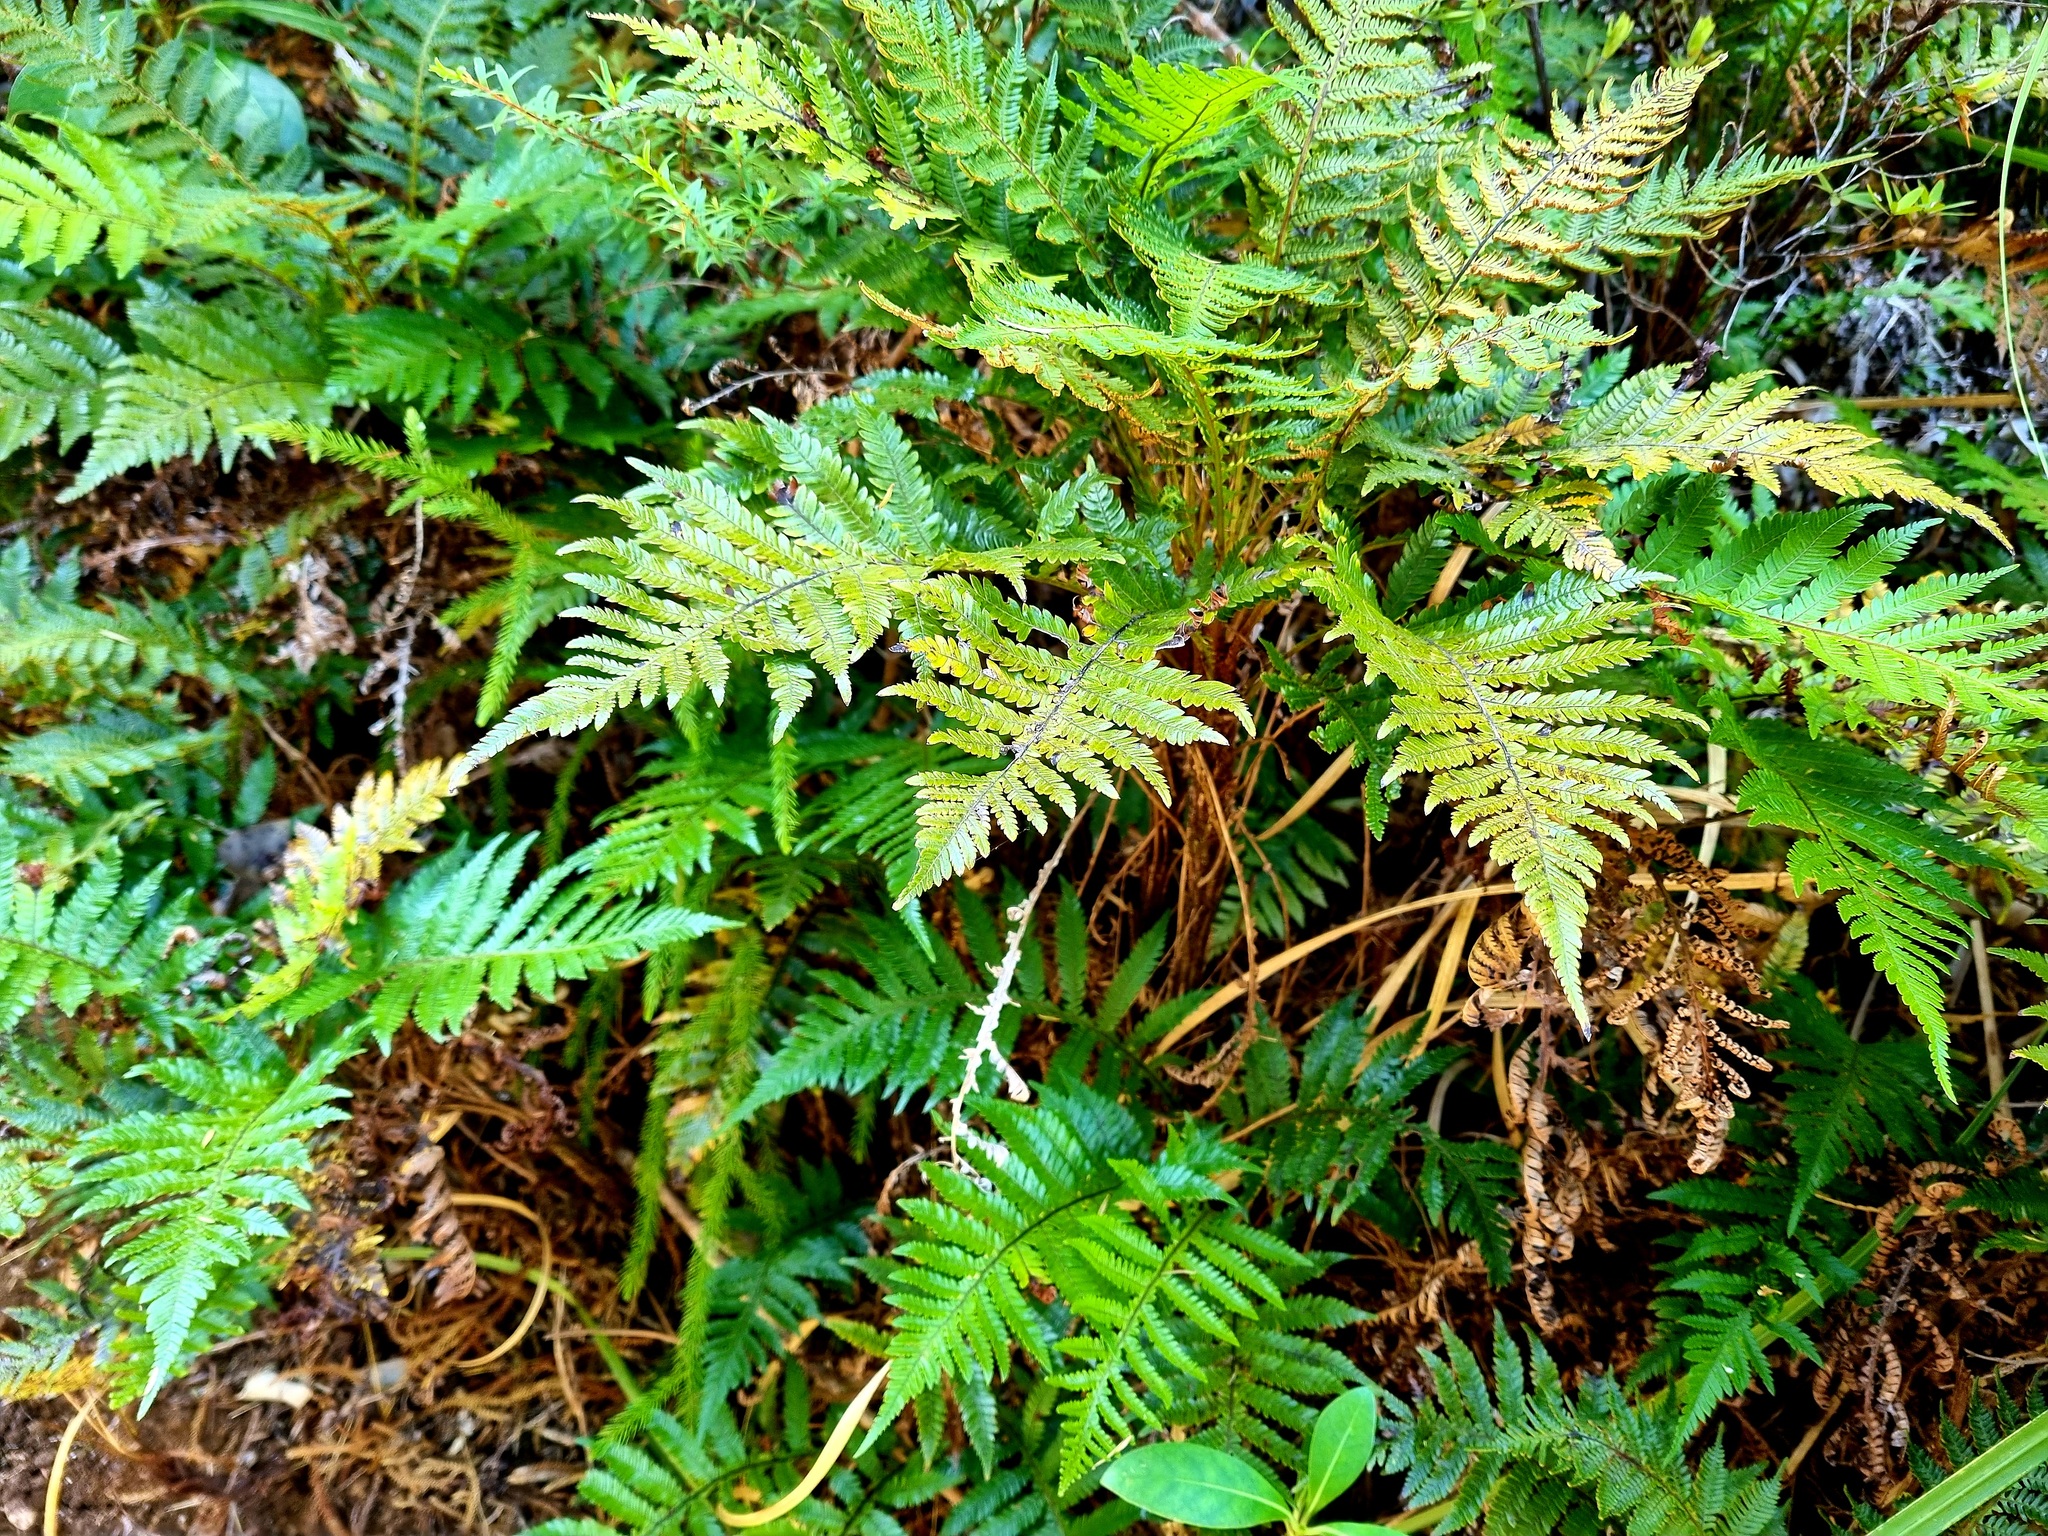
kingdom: Plantae
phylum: Tracheophyta
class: Polypodiopsida
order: Polypodiales
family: Blechnaceae
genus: Diploblechnum
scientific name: Diploblechnum fraseri
